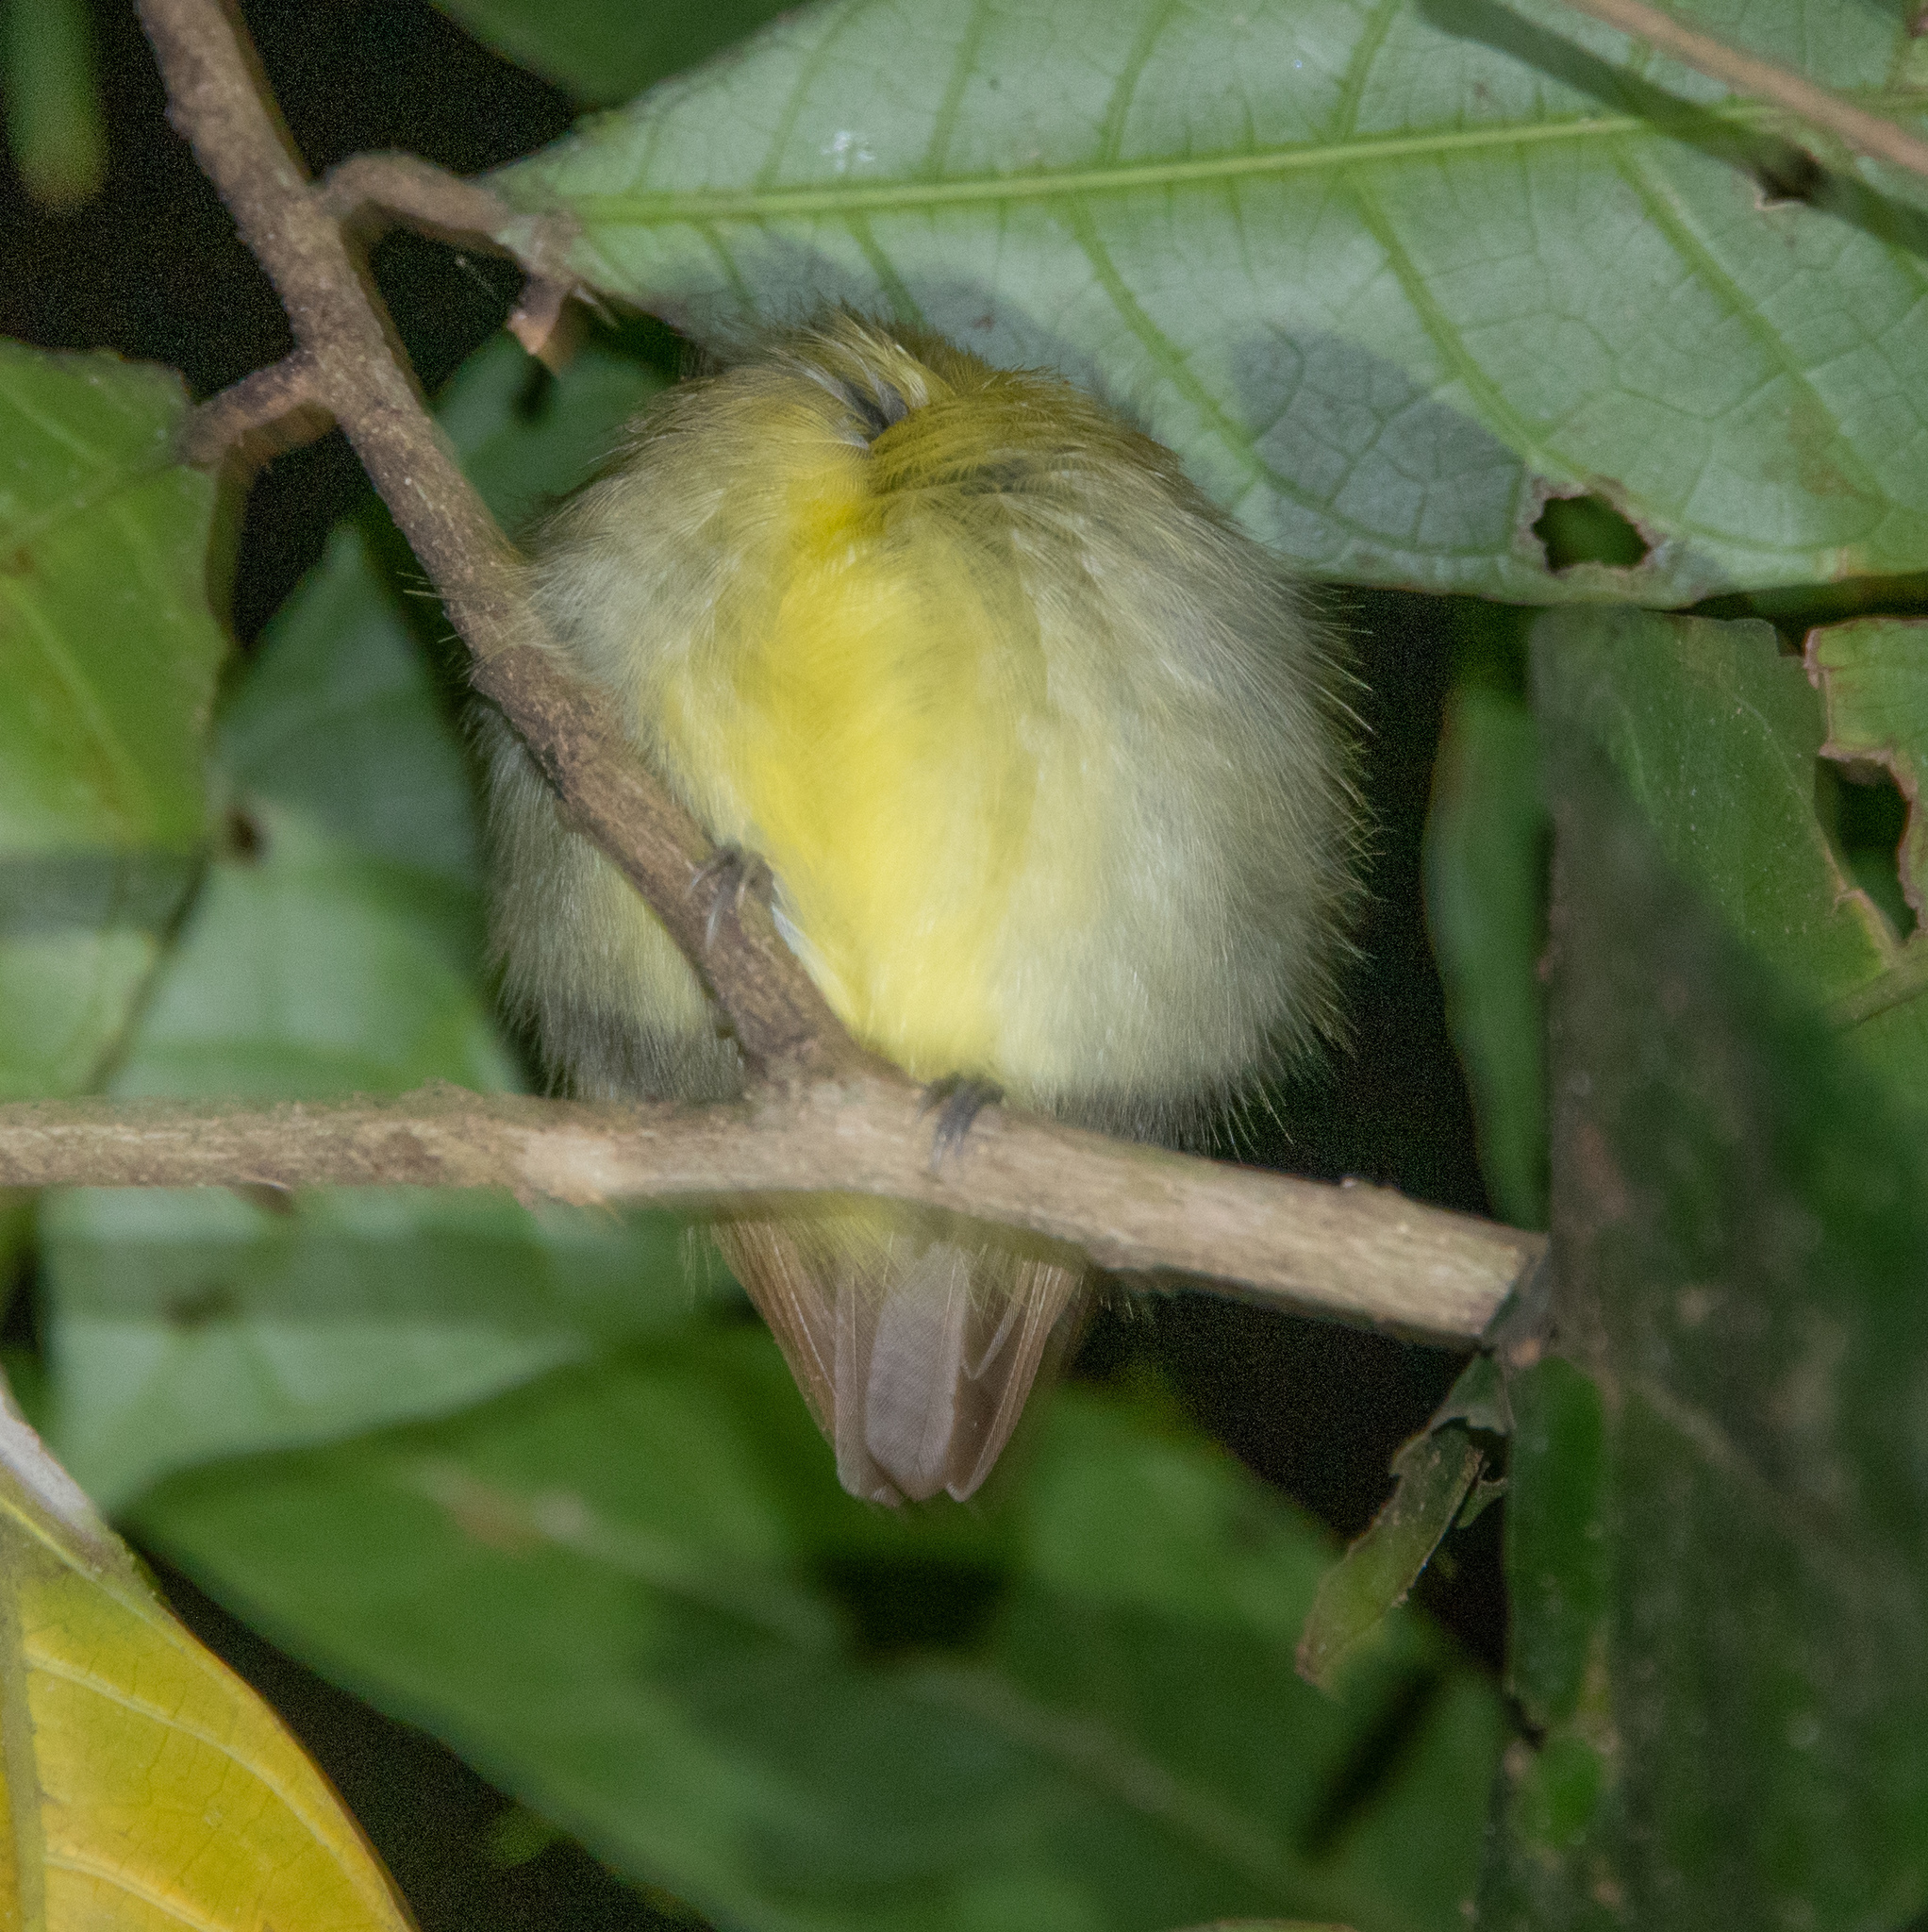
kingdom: Animalia
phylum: Chordata
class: Aves
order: Passeriformes
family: Tyrannidae
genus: Platyrinchus
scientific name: Platyrinchus coronatus
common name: Golden-crowned spadebill
